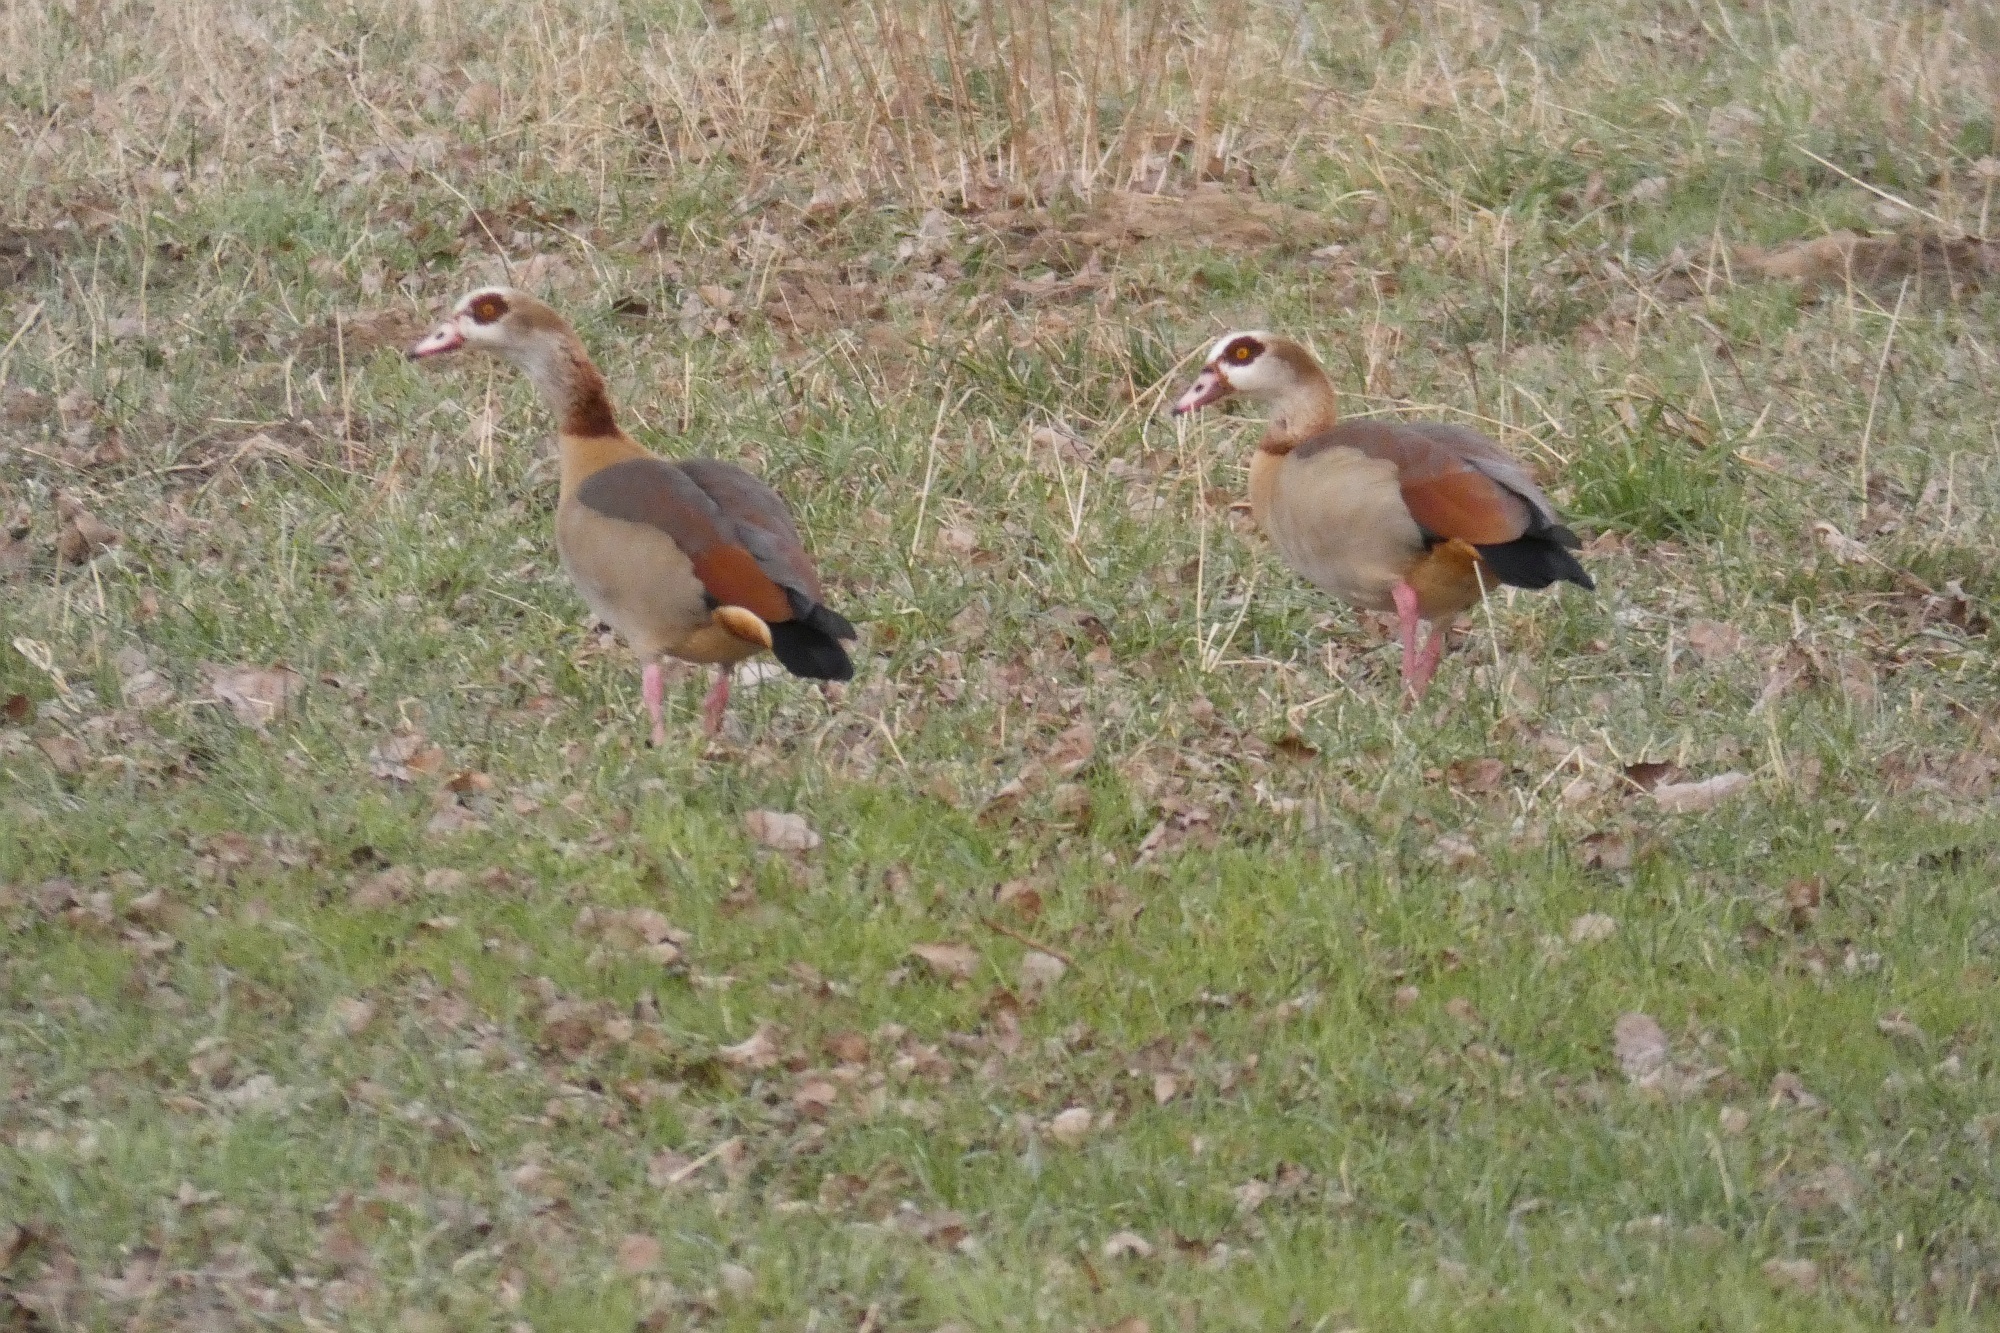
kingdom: Animalia
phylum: Chordata
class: Aves
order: Anseriformes
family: Anatidae
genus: Alopochen
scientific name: Alopochen aegyptiaca
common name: Egyptian goose
